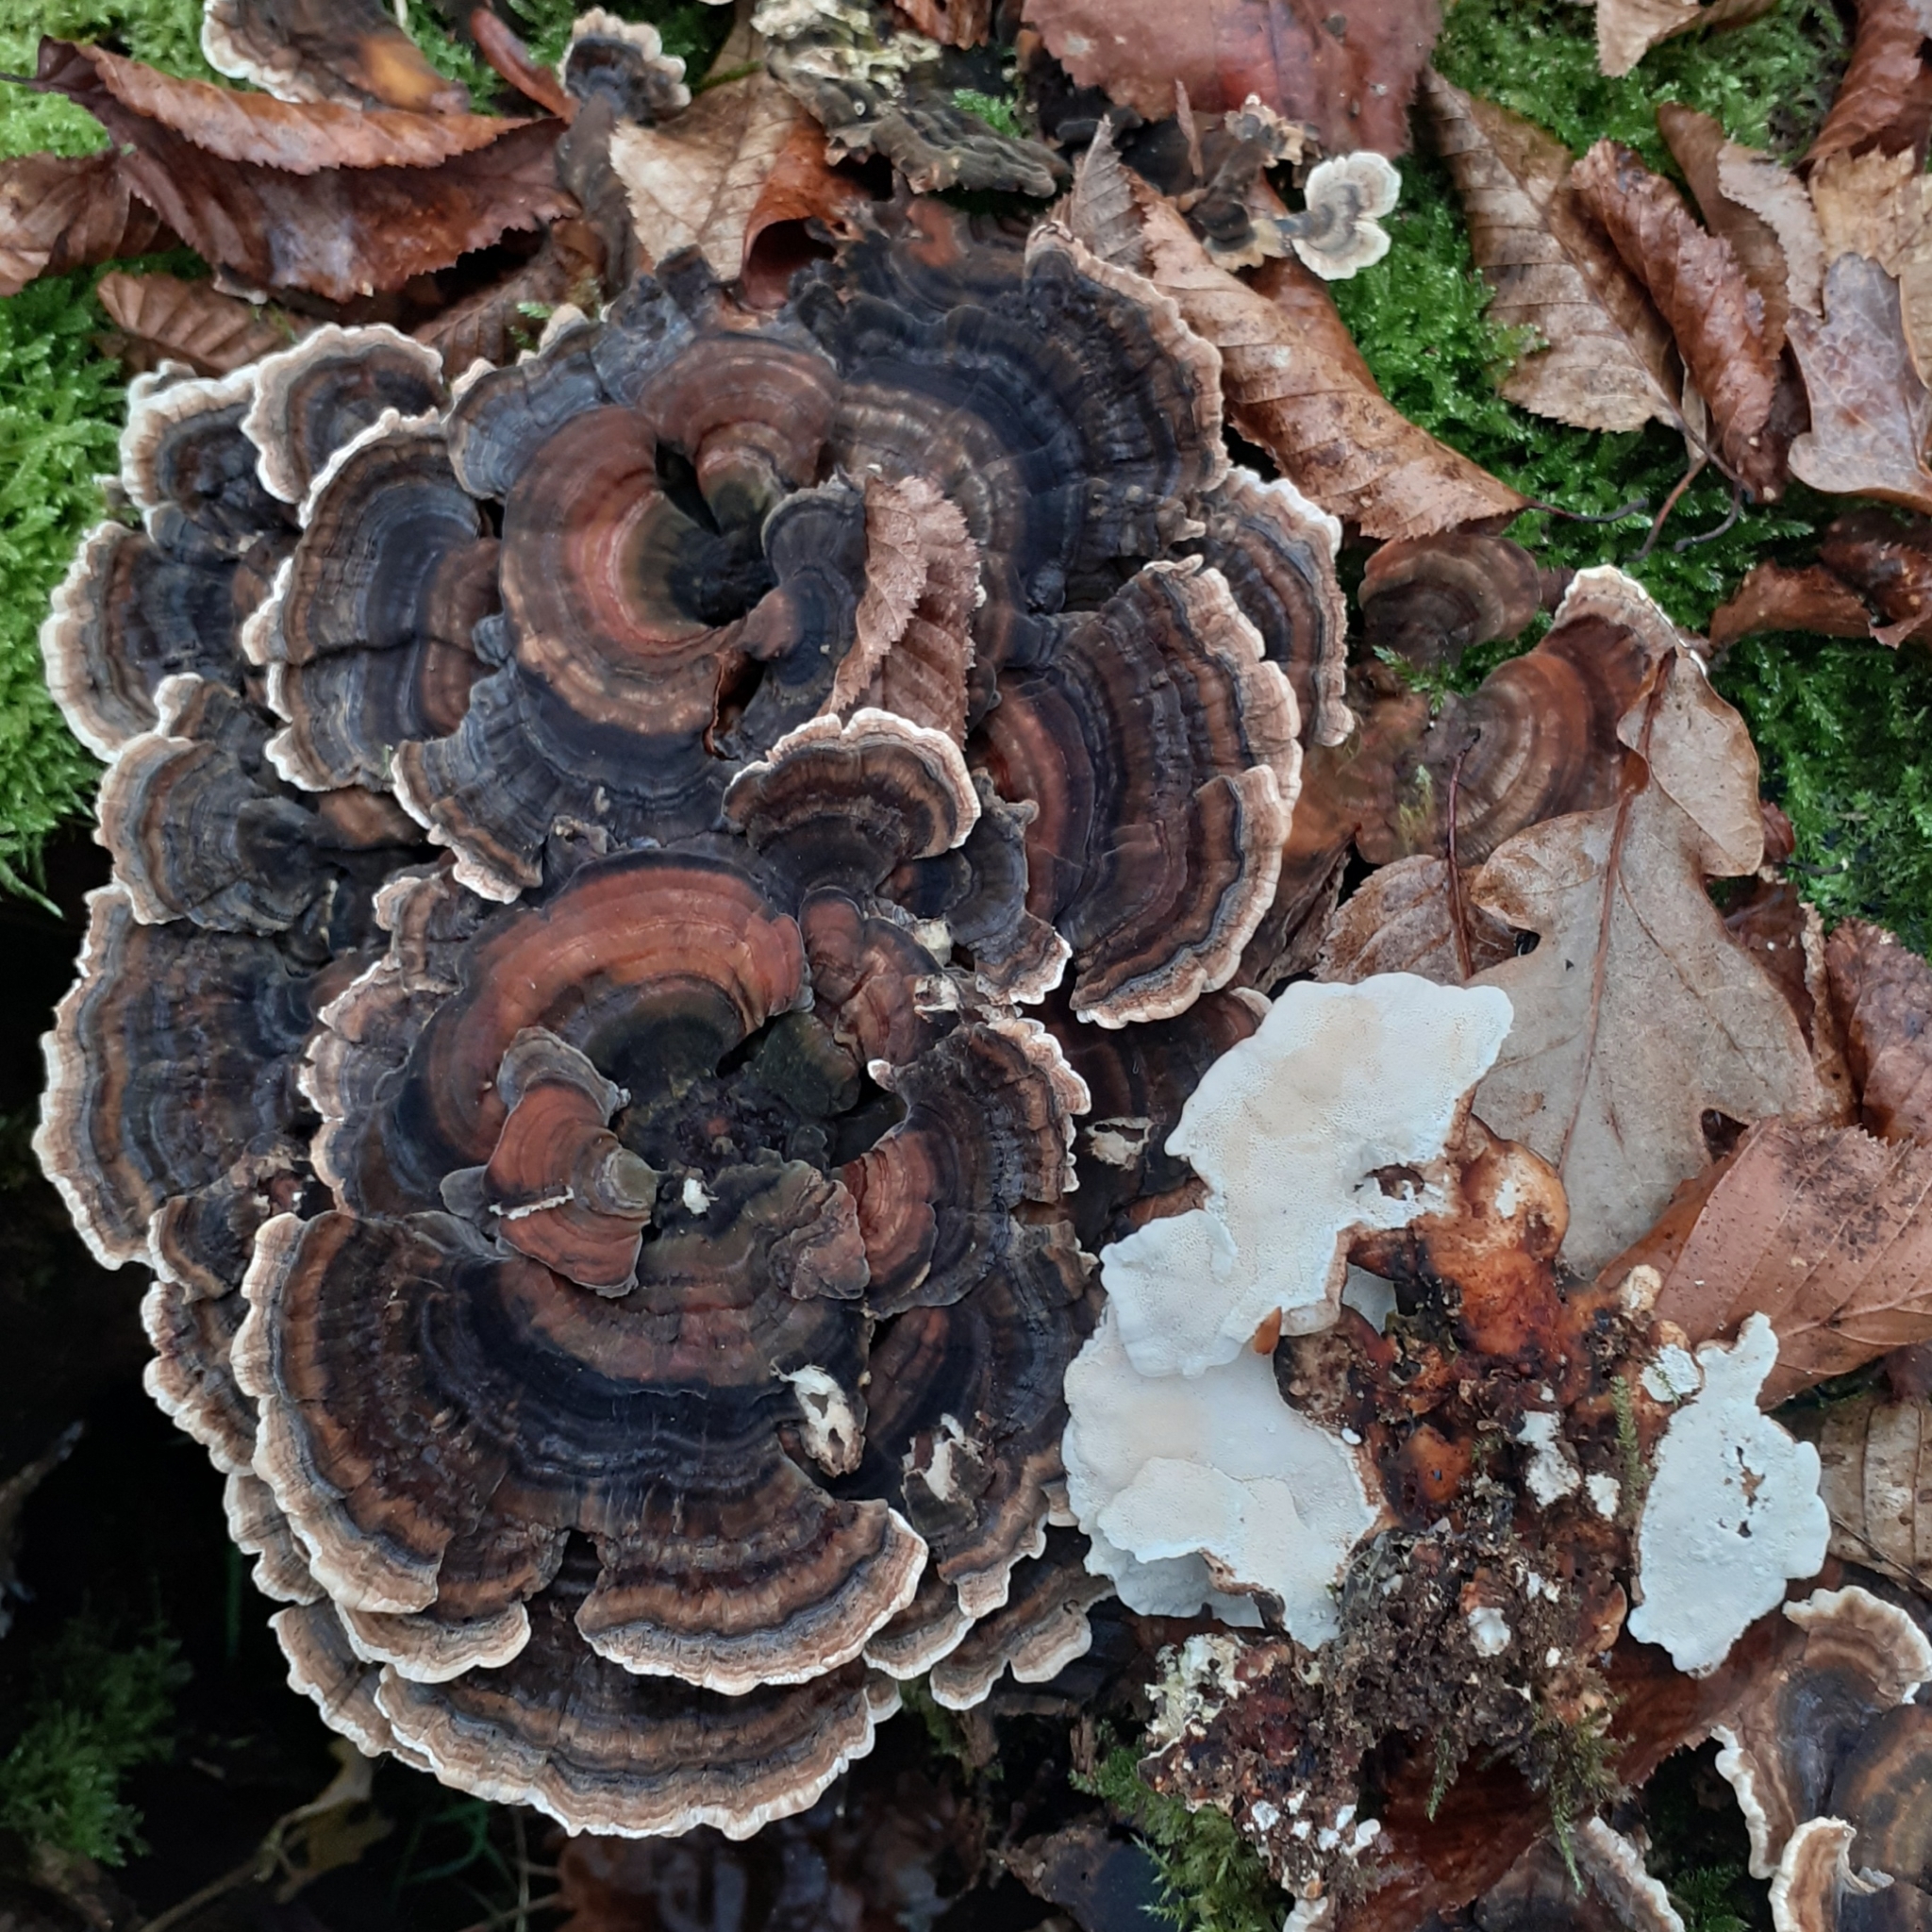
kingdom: Fungi
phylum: Basidiomycota
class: Agaricomycetes
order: Polyporales
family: Polyporaceae
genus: Trametes
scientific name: Trametes versicolor
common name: Turkeytail
